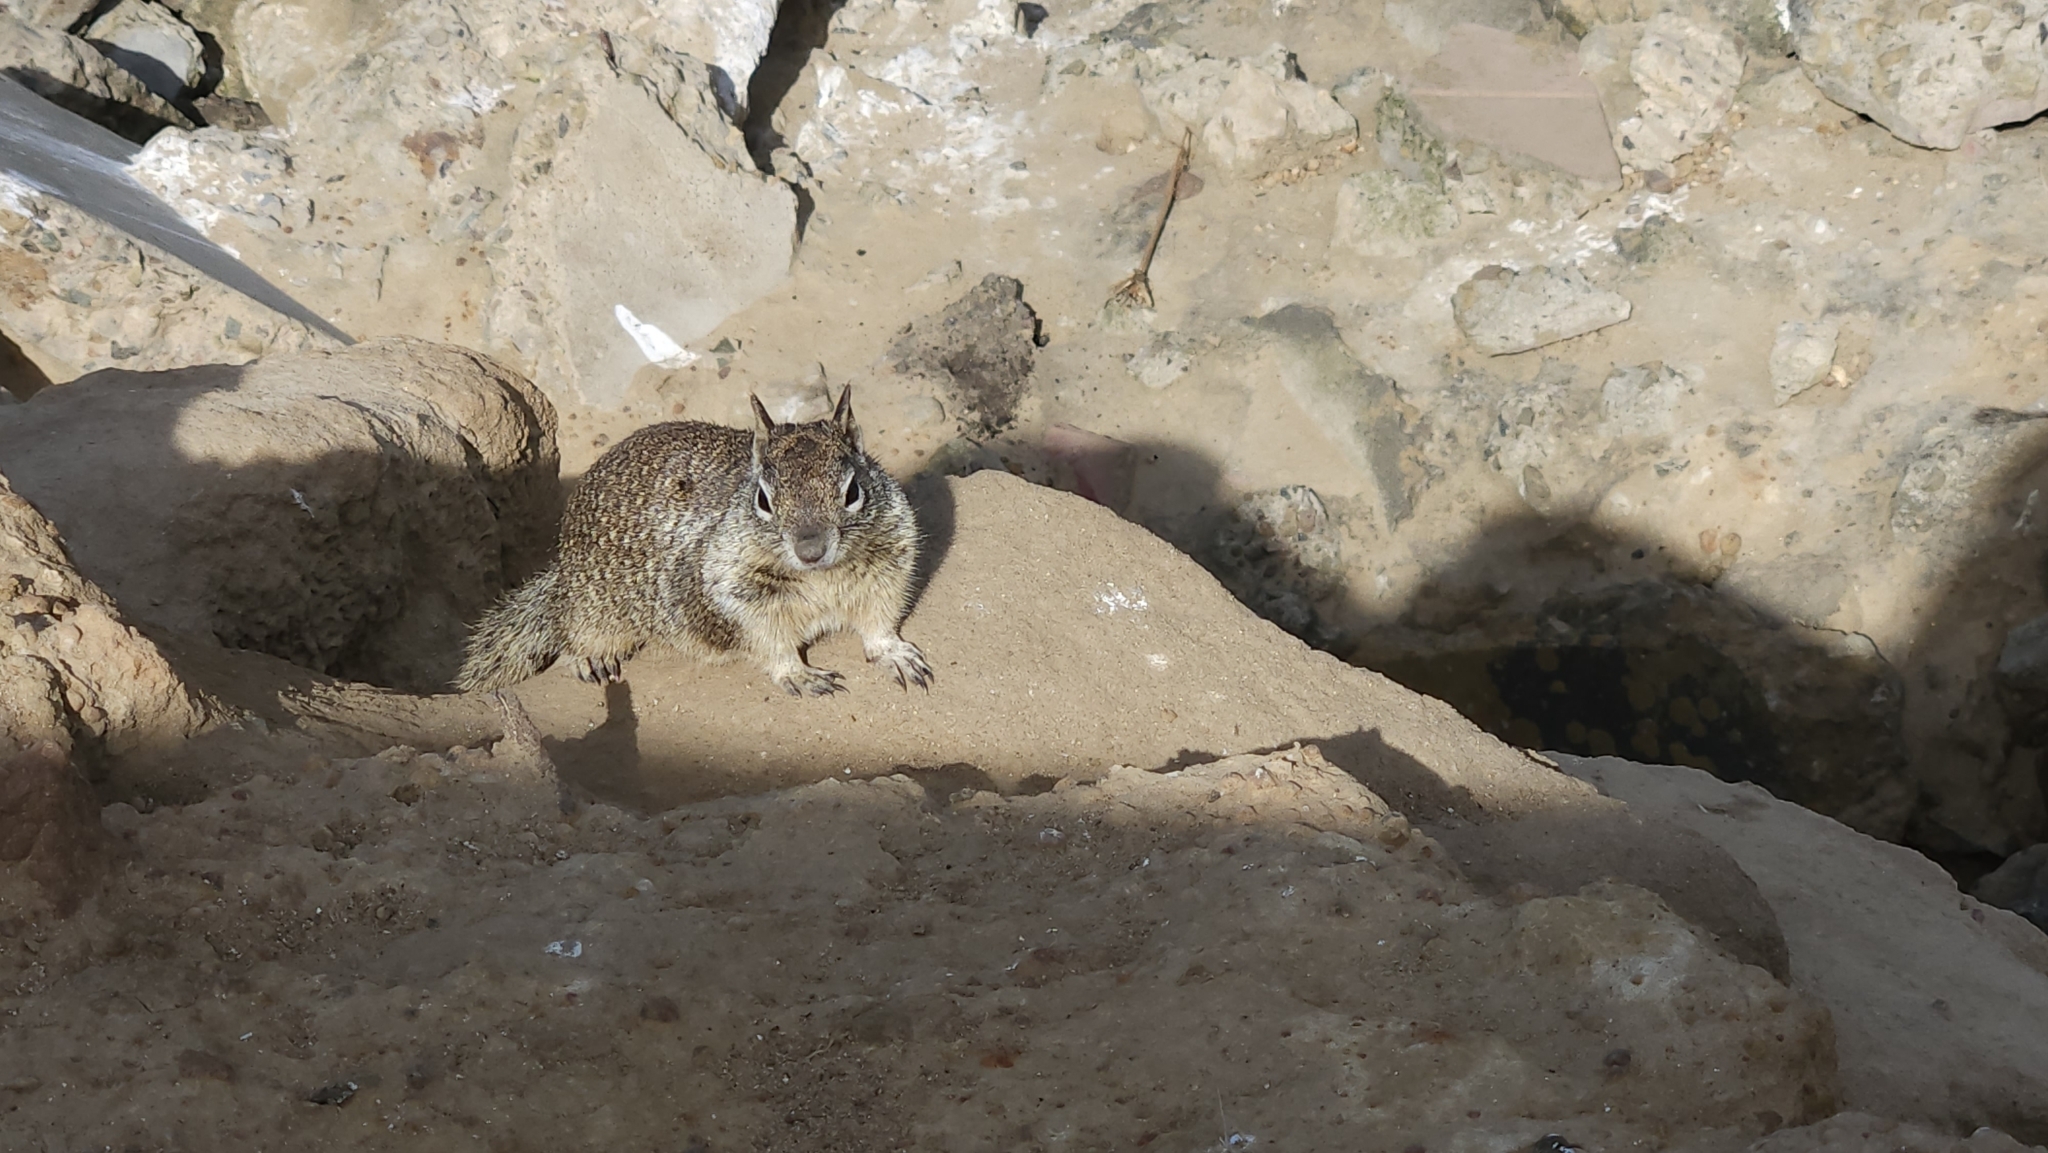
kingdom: Animalia
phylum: Chordata
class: Mammalia
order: Rodentia
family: Sciuridae
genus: Otospermophilus
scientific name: Otospermophilus beecheyi
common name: California ground squirrel
